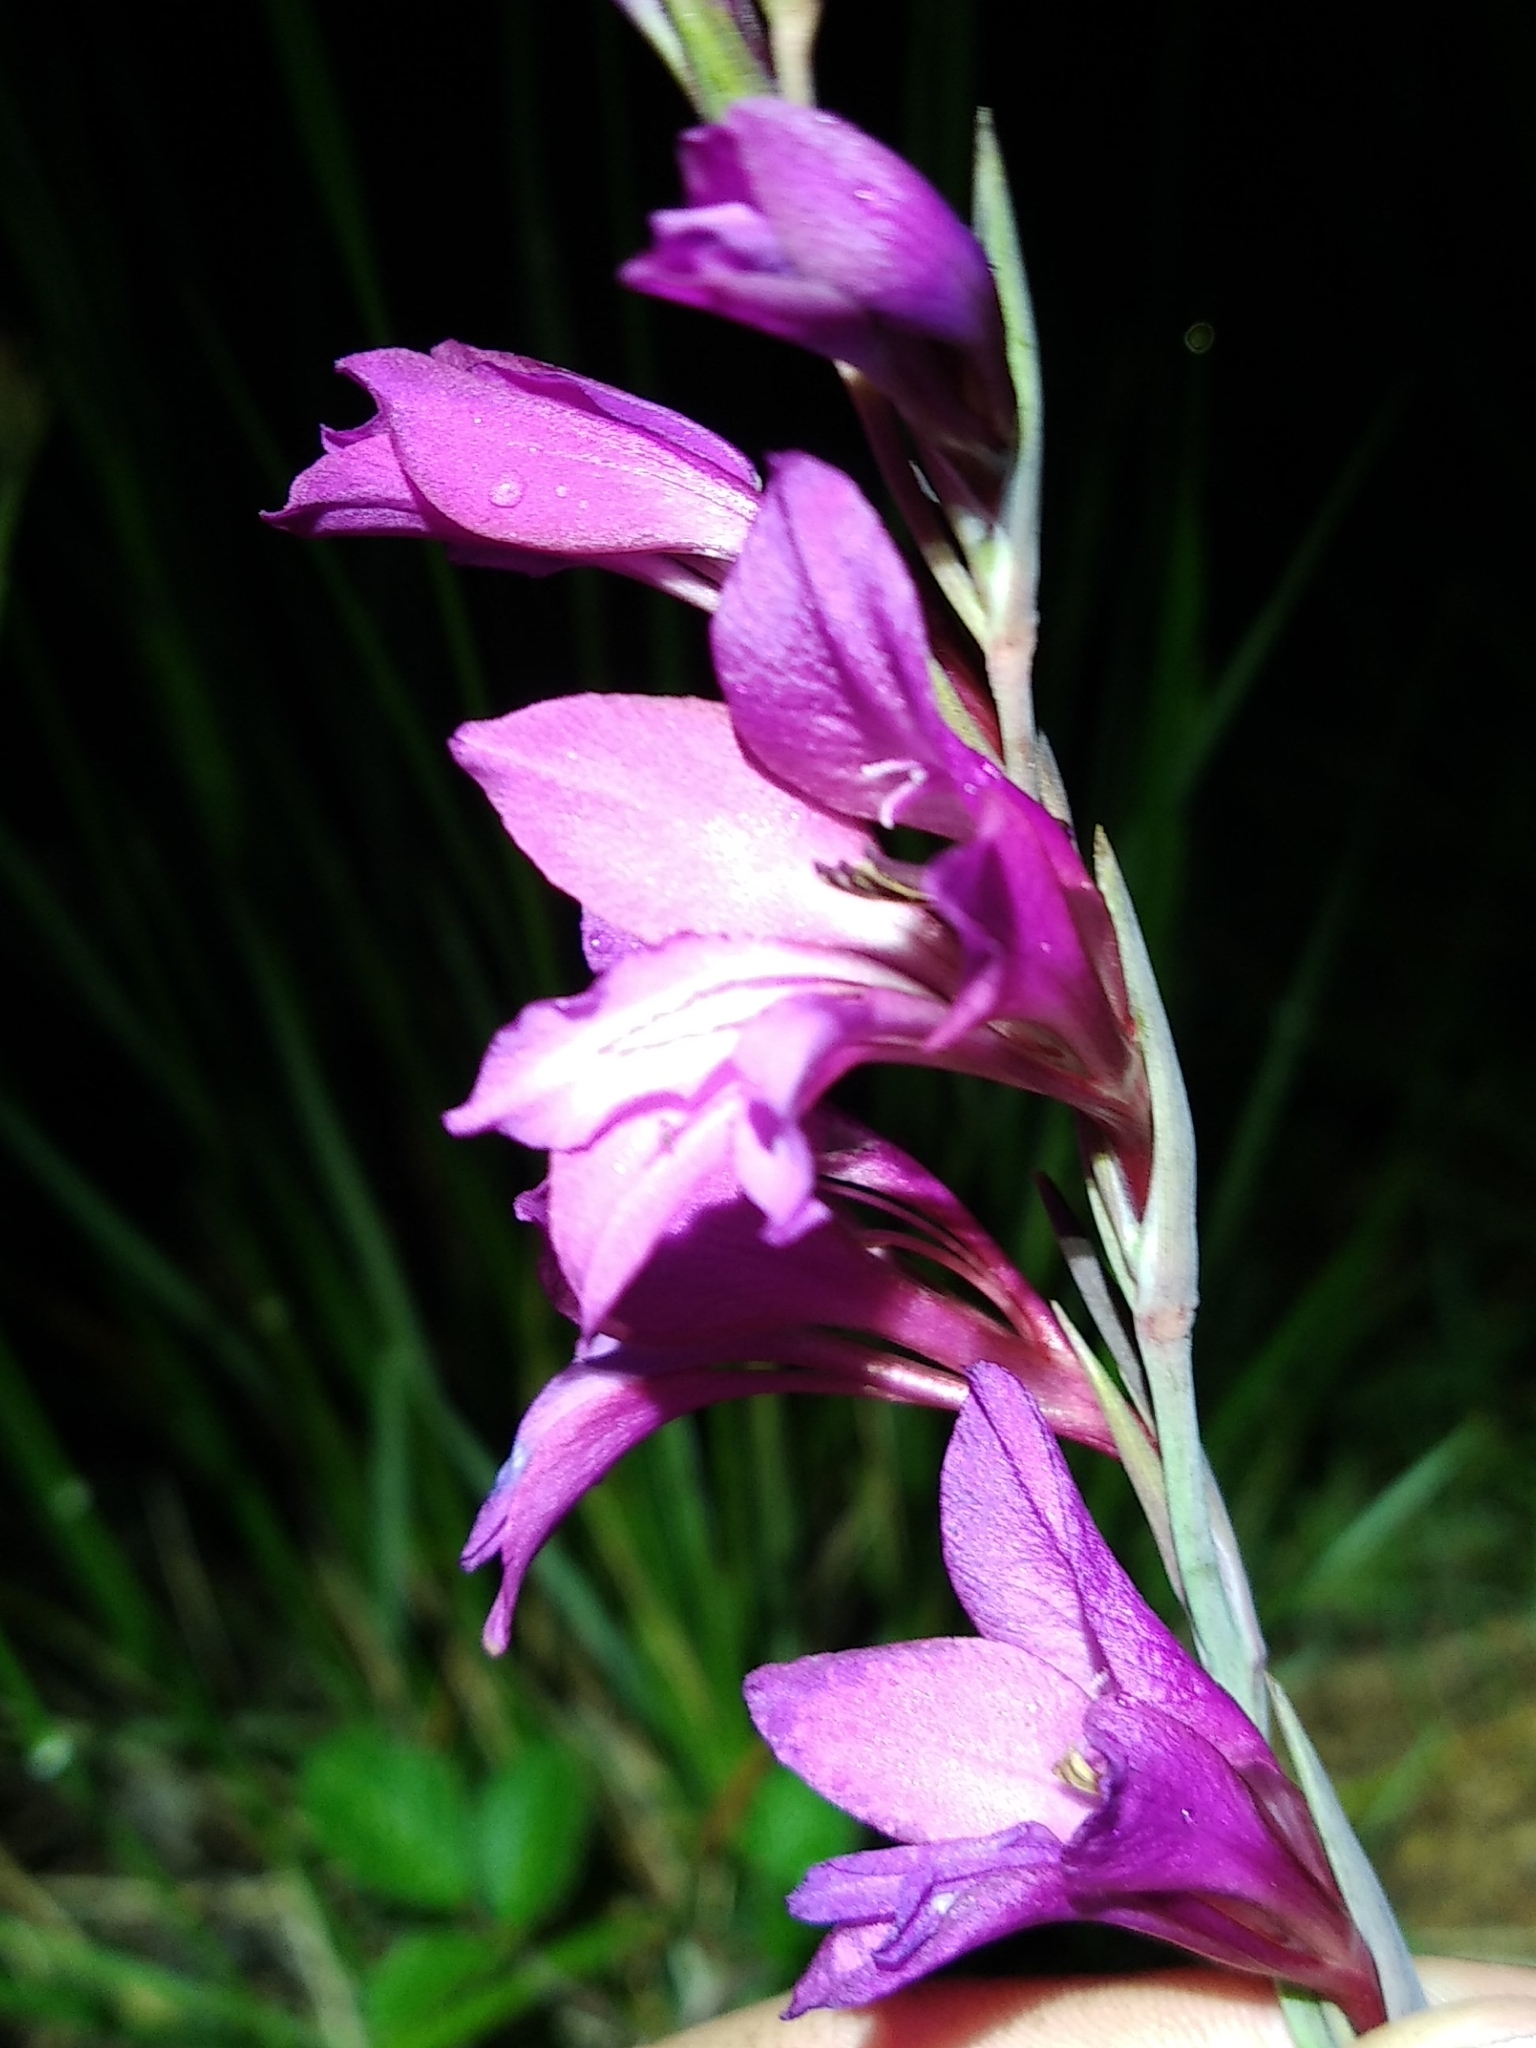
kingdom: Plantae
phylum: Tracheophyta
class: Liliopsida
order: Asparagales
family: Iridaceae
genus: Gladiolus
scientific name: Gladiolus dubius
